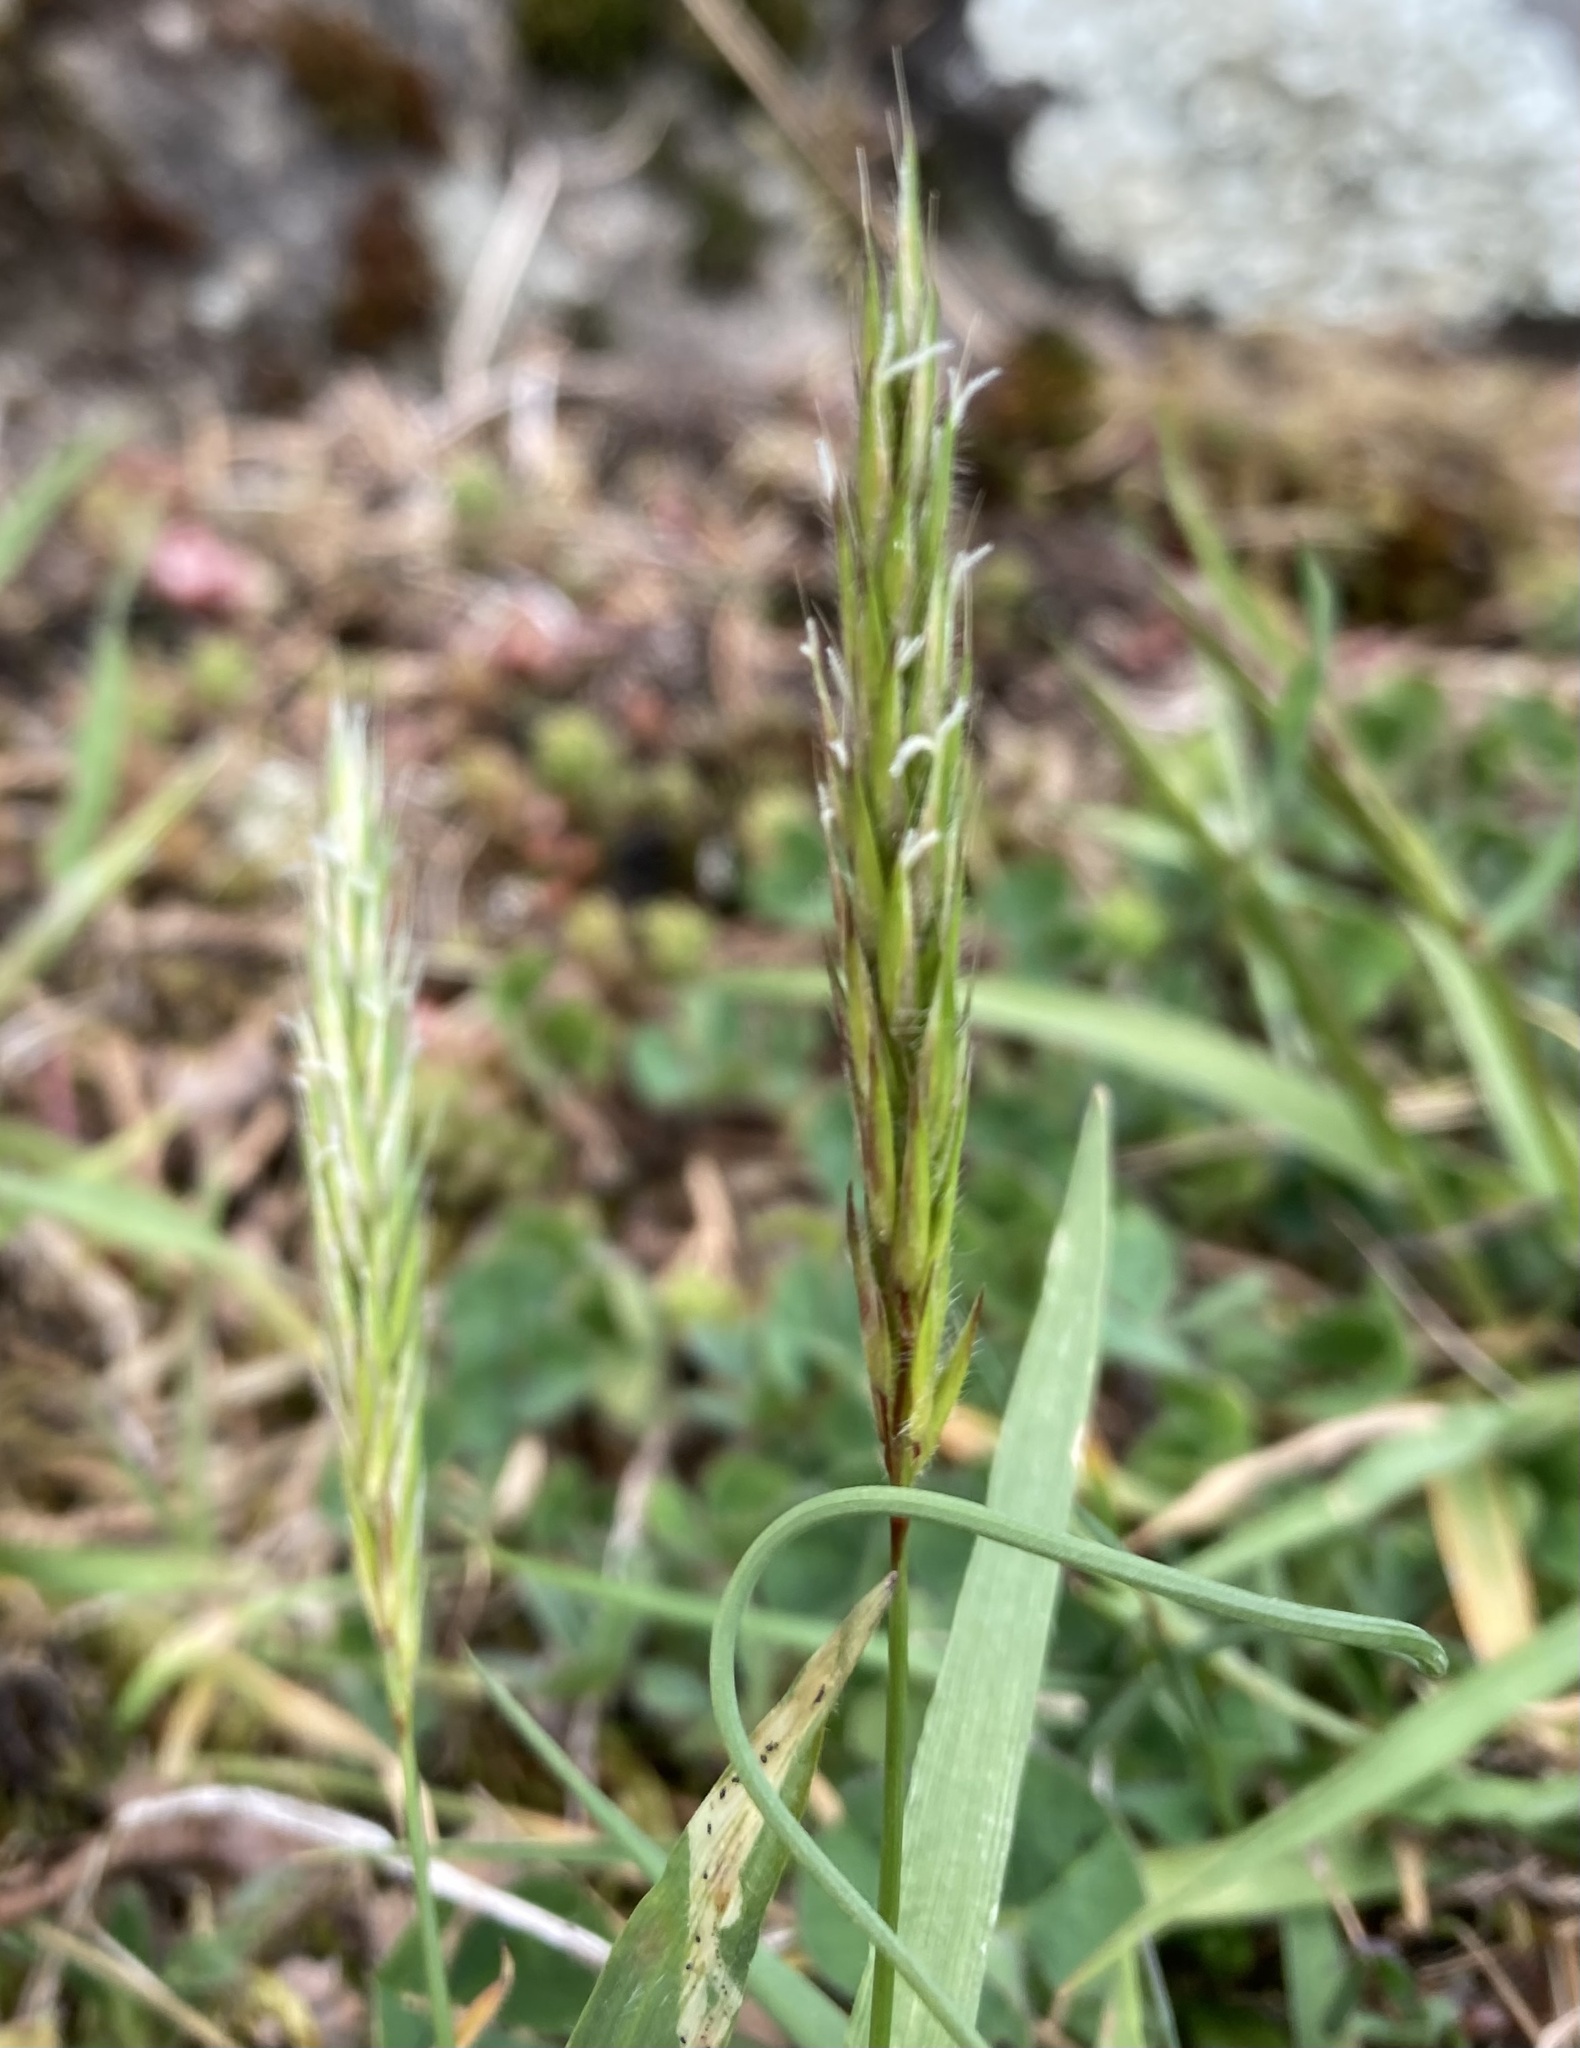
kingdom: Plantae
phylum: Tracheophyta
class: Liliopsida
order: Poales
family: Poaceae
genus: Anthoxanthum
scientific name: Anthoxanthum odoratum
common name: Sweet vernalgrass
